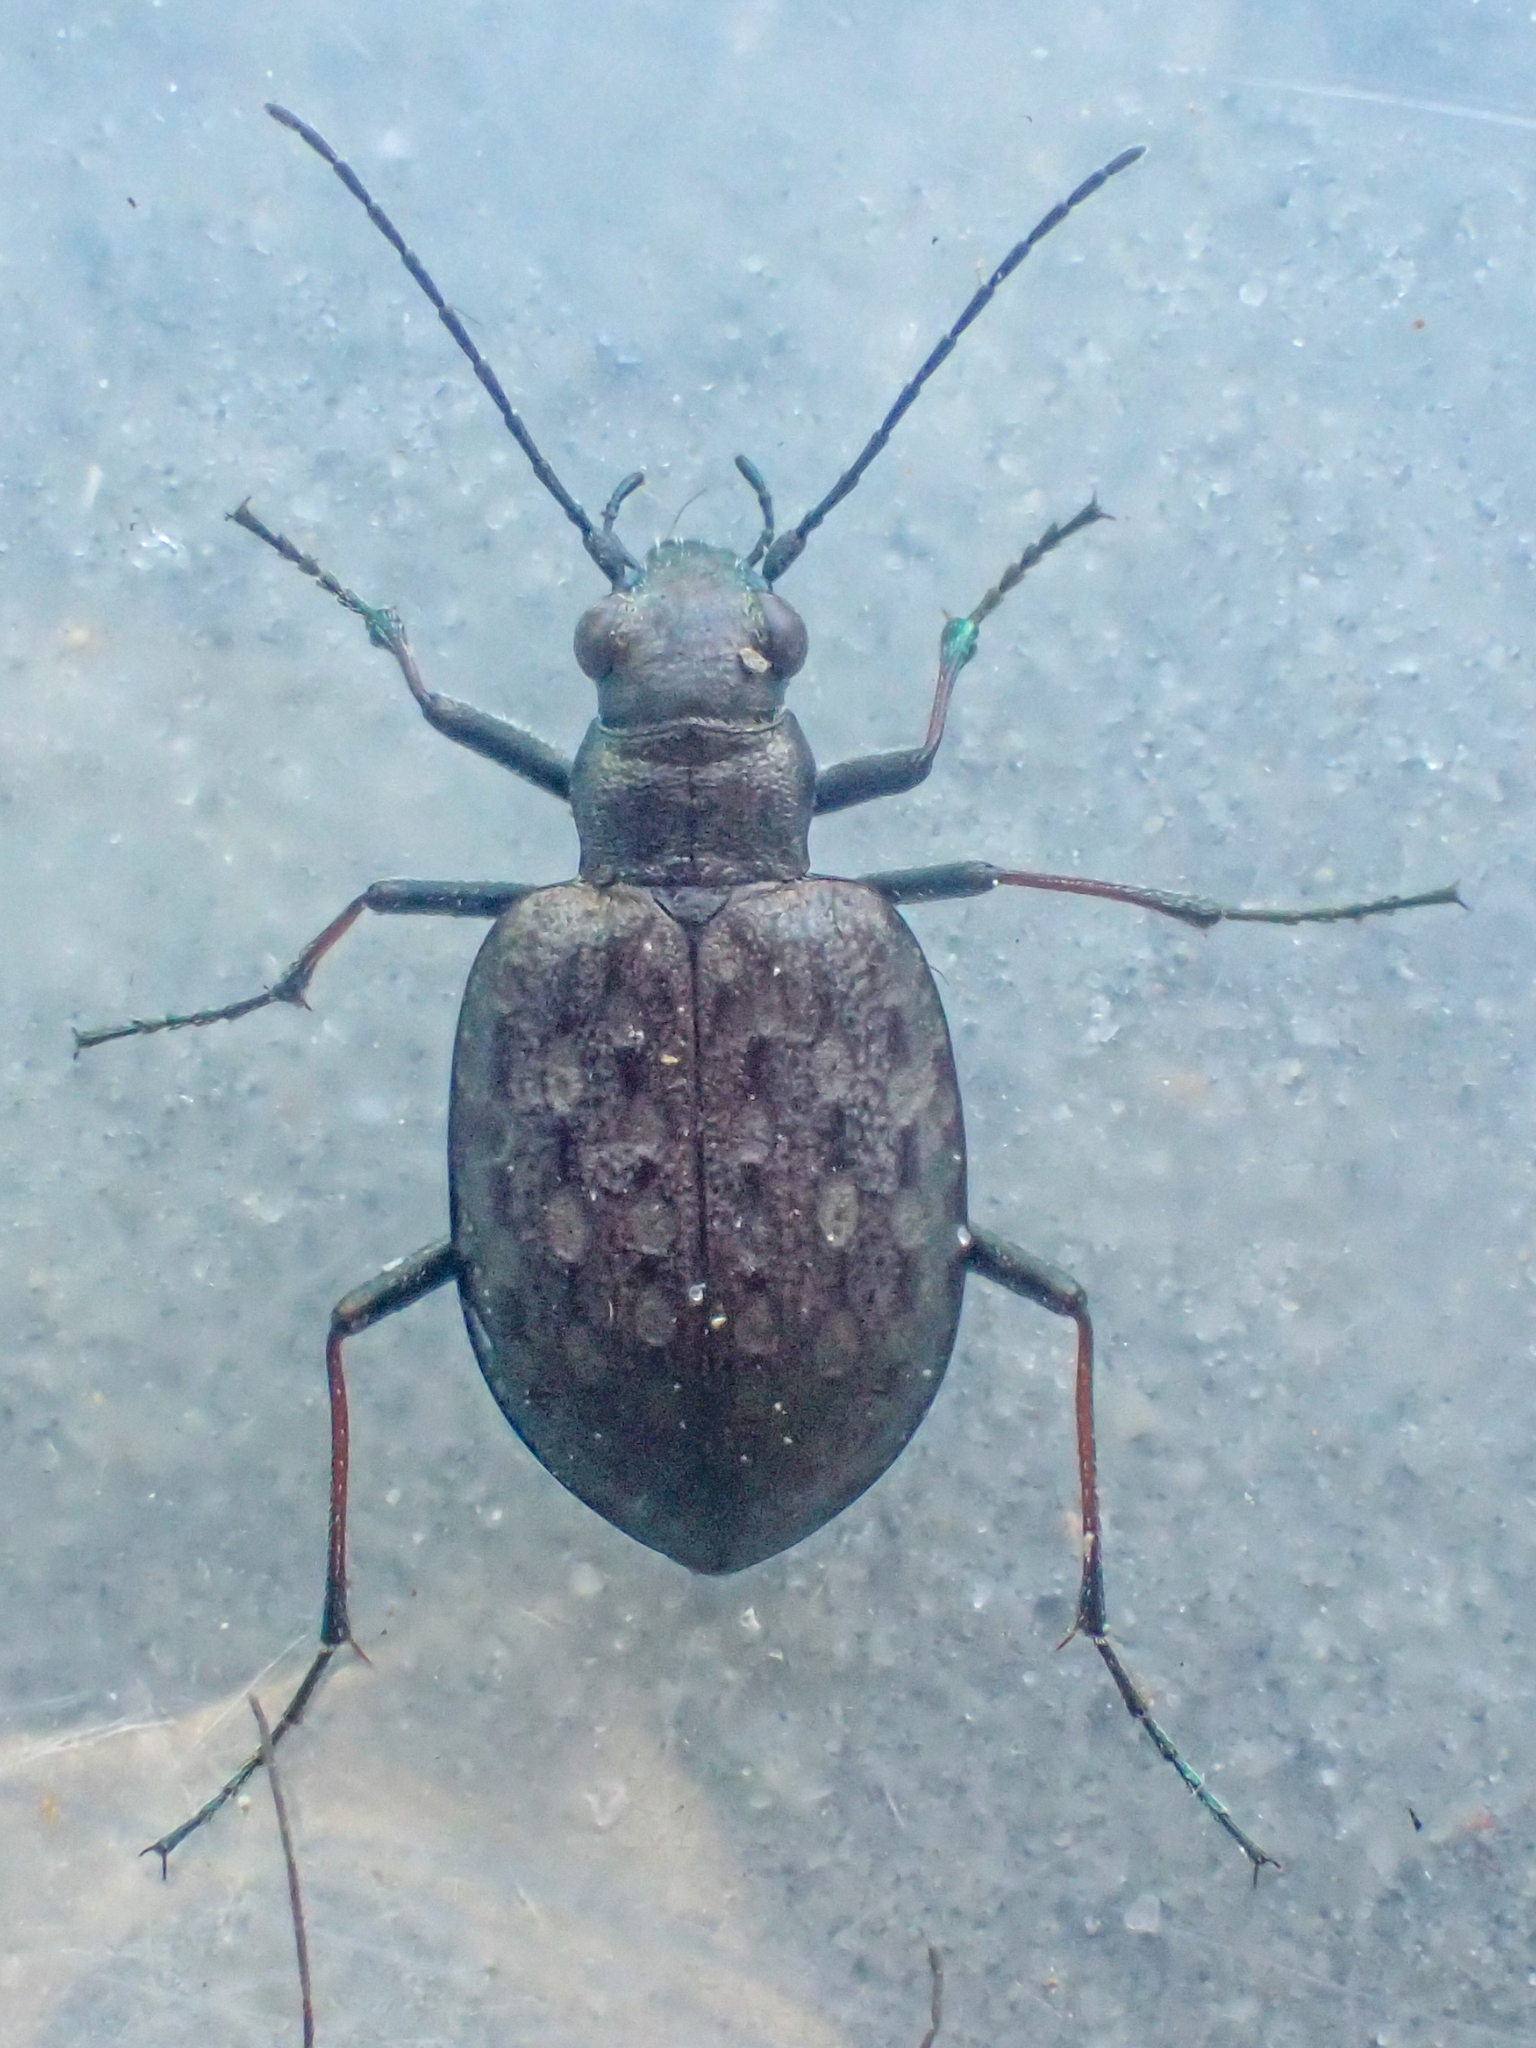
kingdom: Animalia
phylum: Arthropoda
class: Insecta
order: Coleoptera
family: Carabidae
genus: Opisthius
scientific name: Opisthius richardsoni
